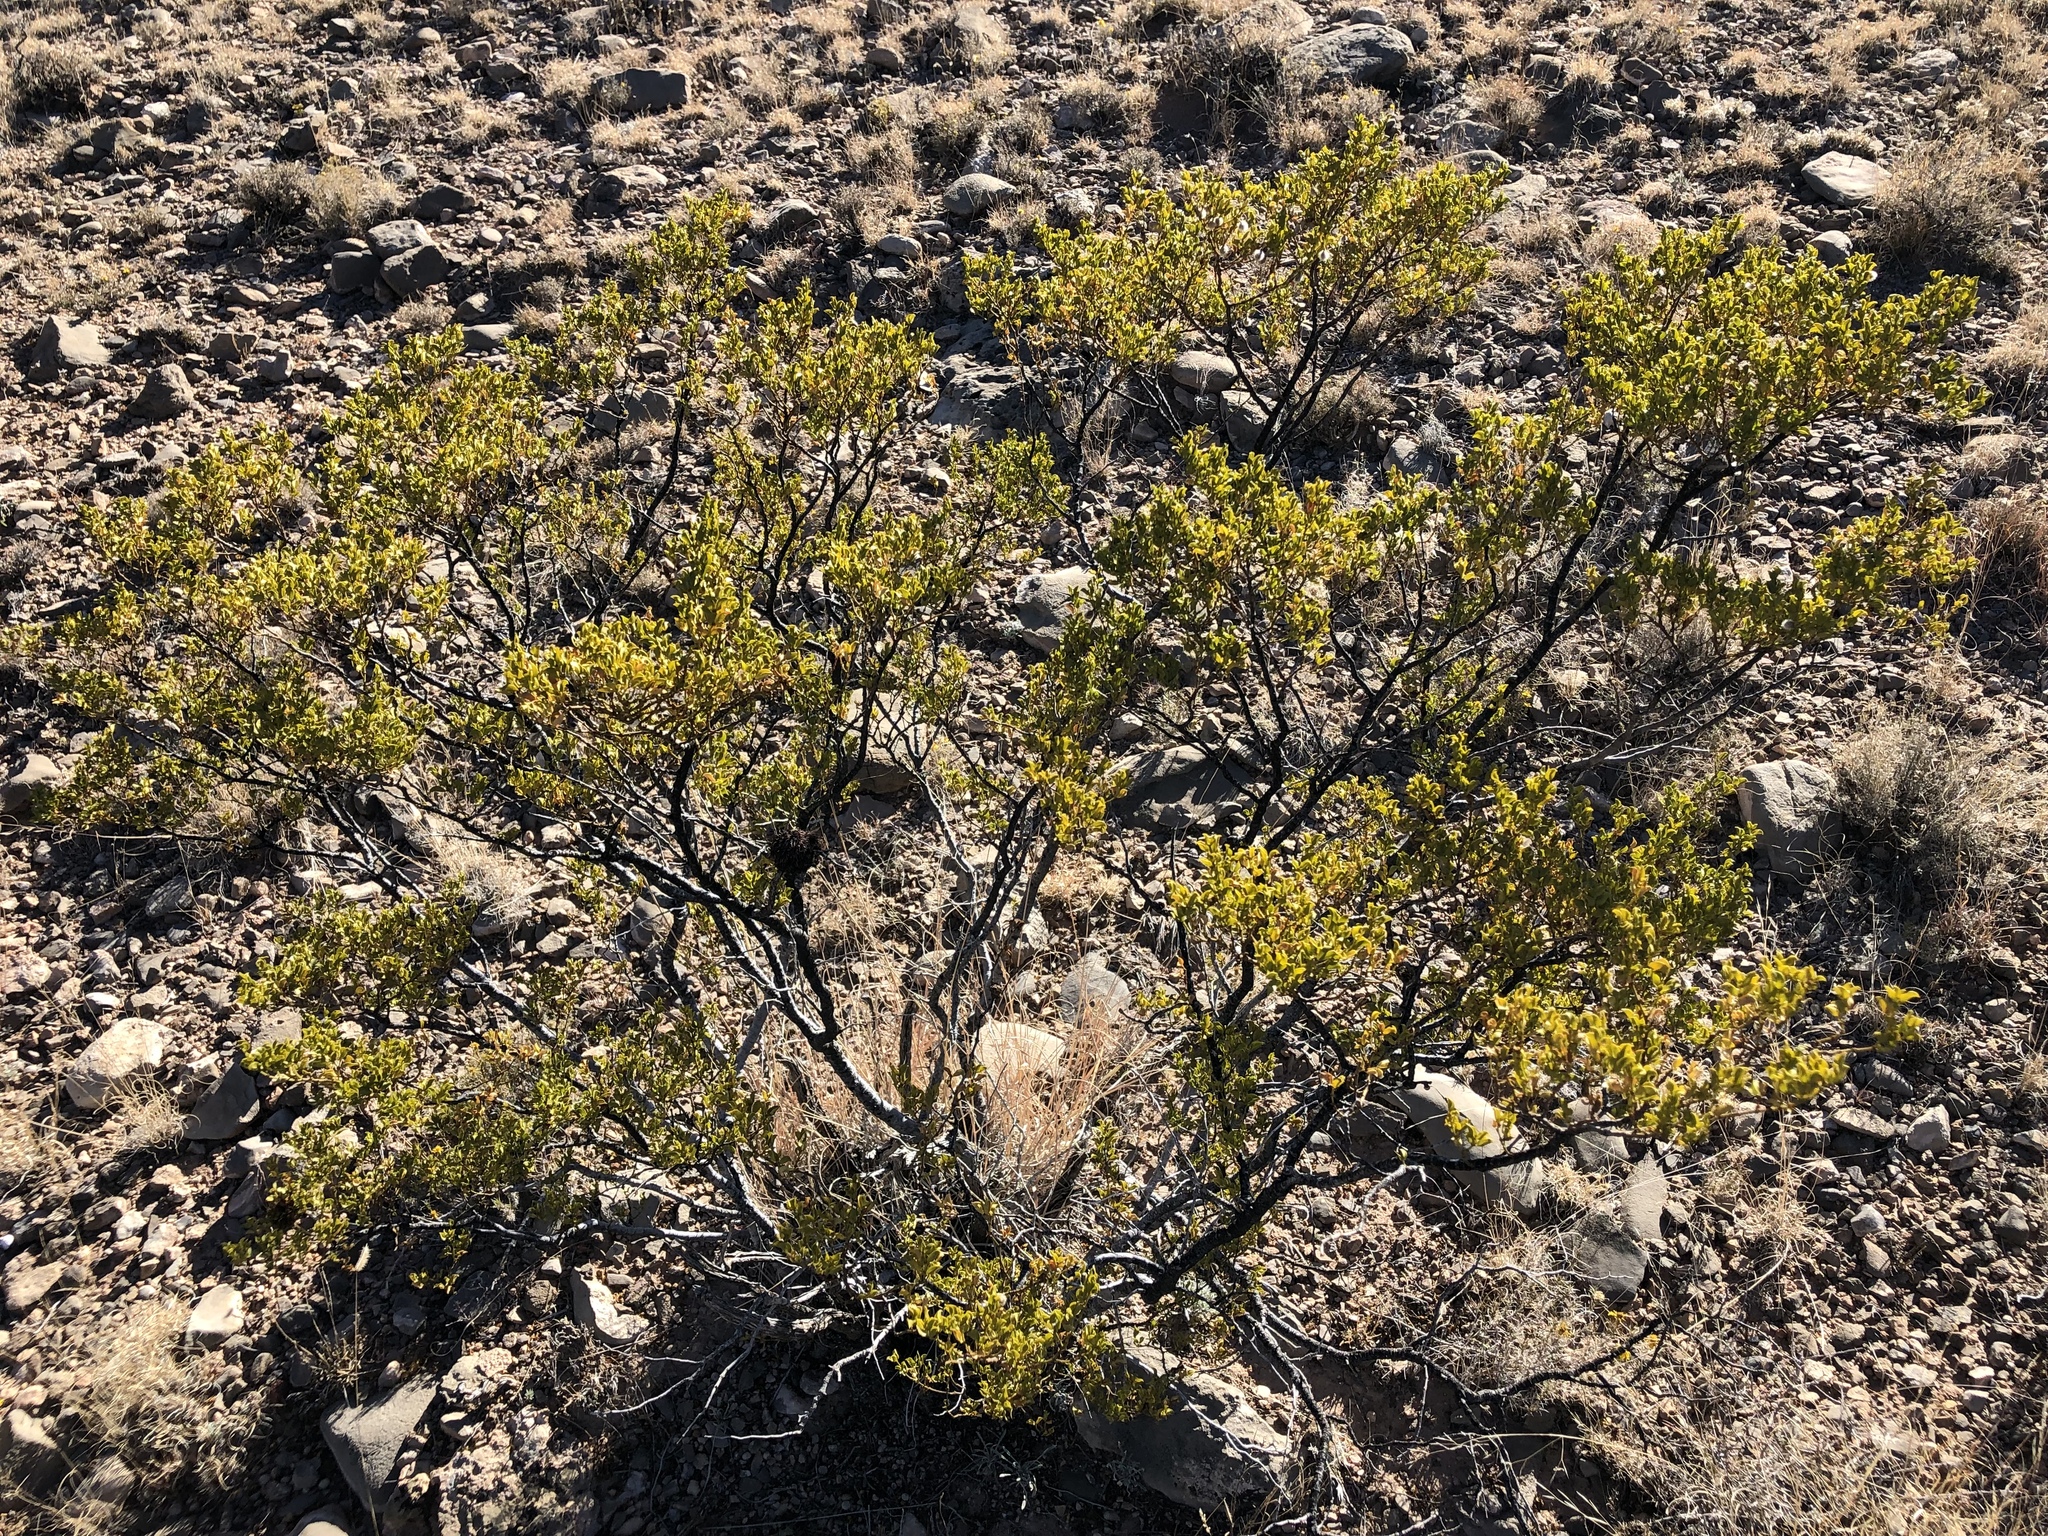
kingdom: Plantae
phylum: Tracheophyta
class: Magnoliopsida
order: Zygophyllales
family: Zygophyllaceae
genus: Larrea
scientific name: Larrea tridentata
